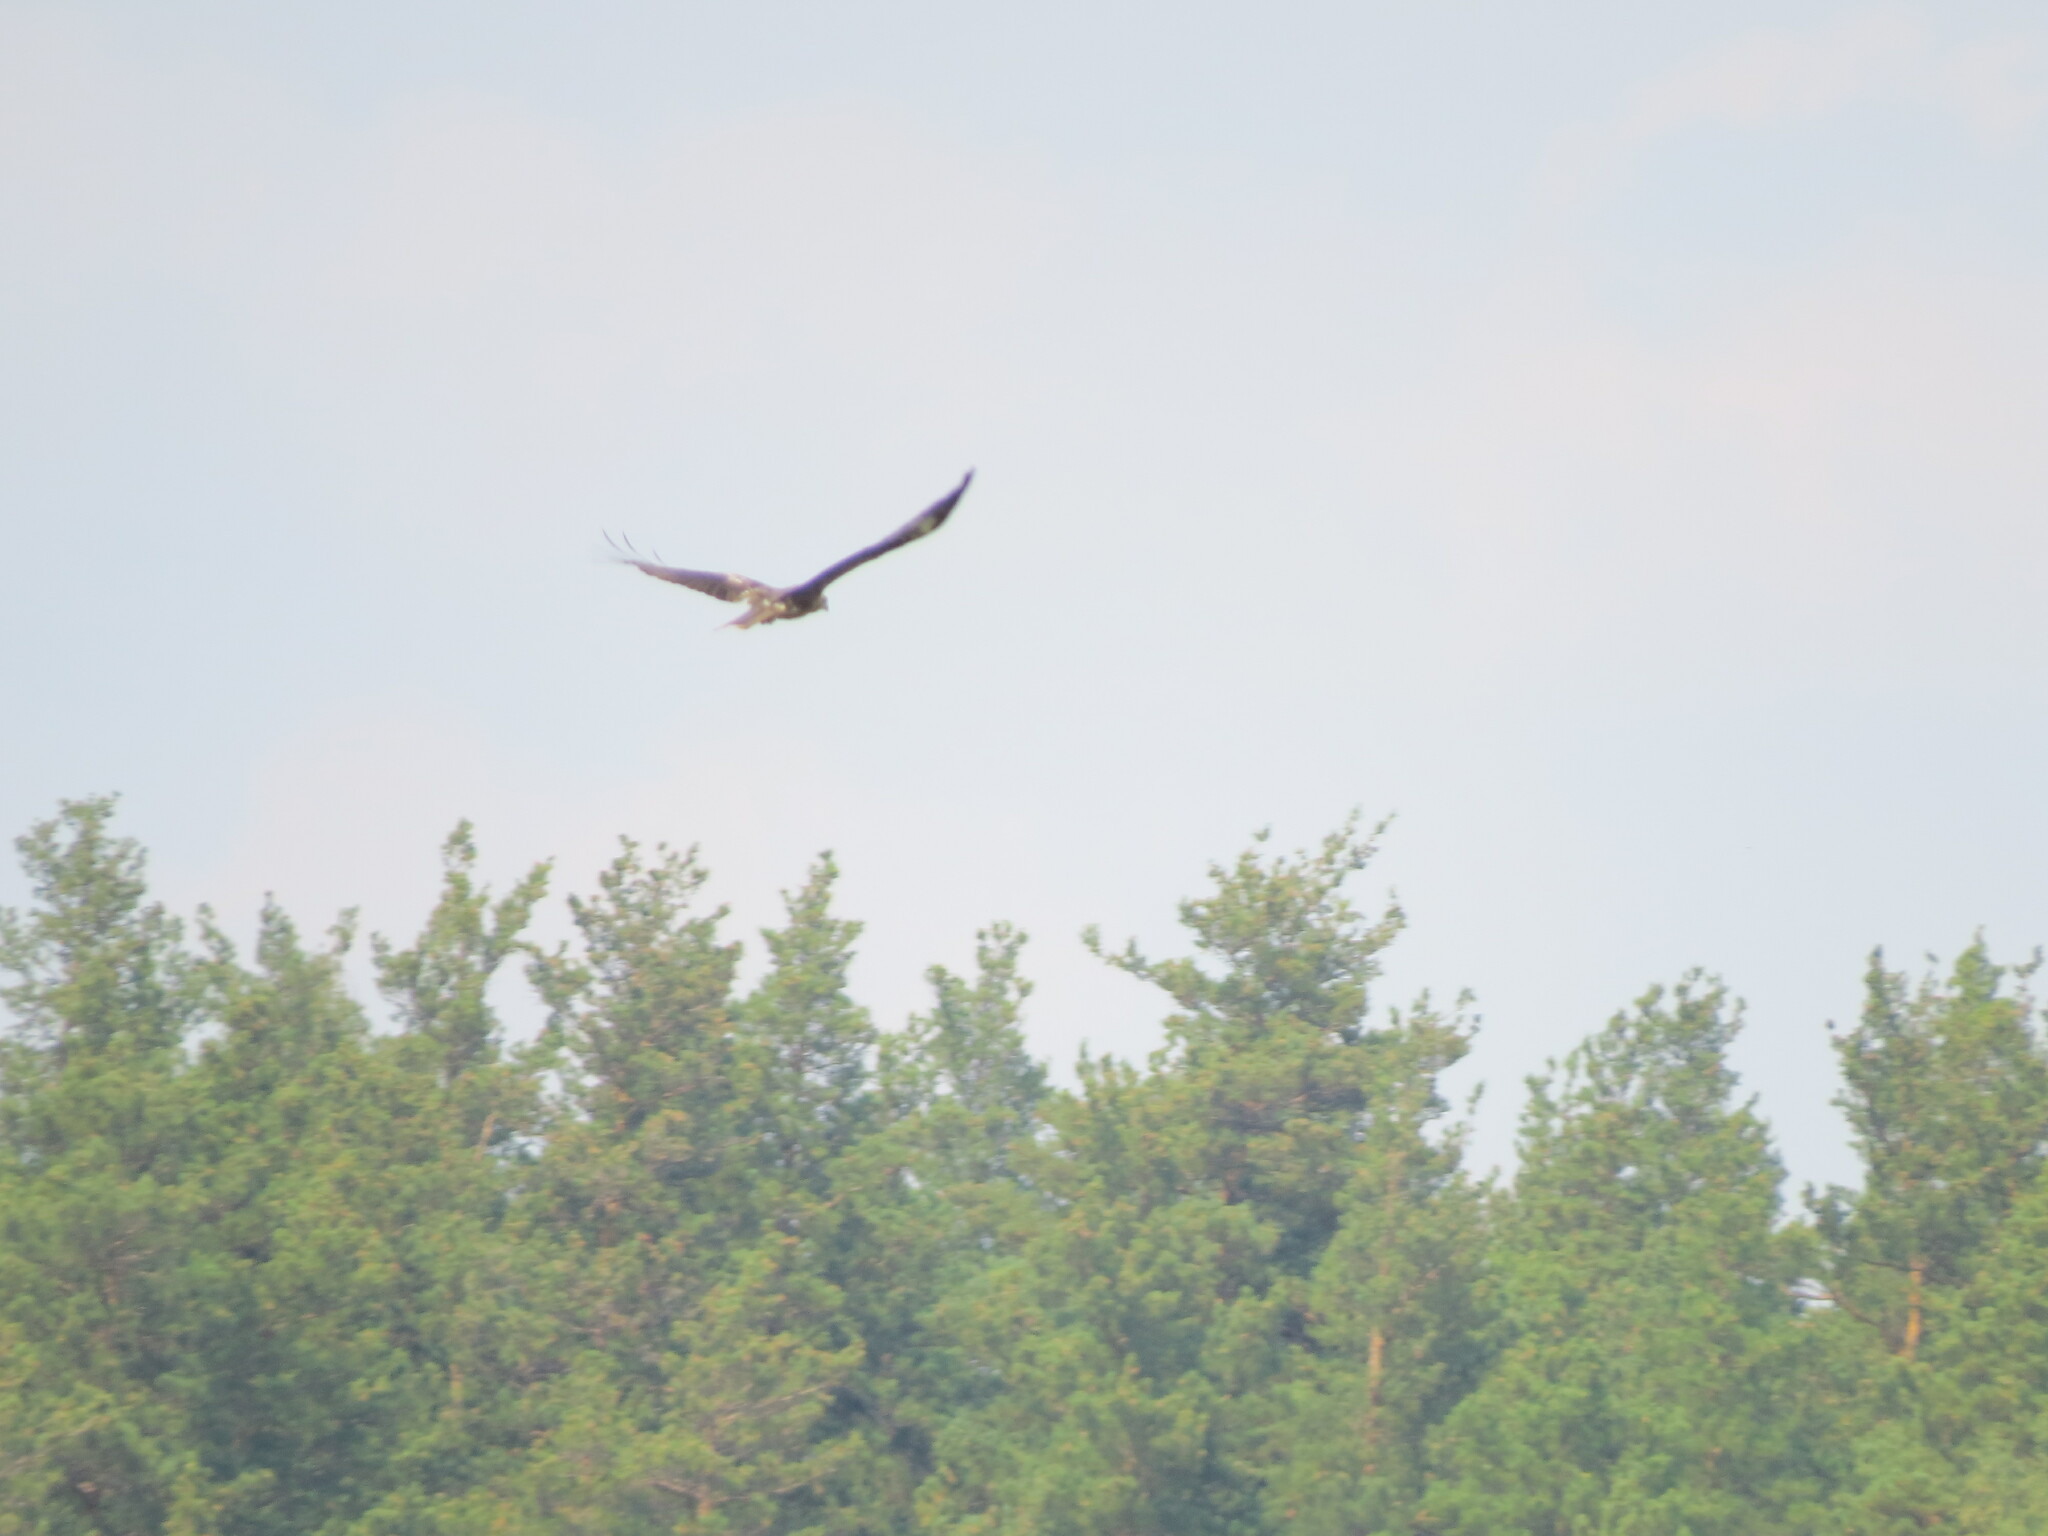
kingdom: Animalia
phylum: Chordata
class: Aves
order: Accipitriformes
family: Accipitridae
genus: Milvus
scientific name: Milvus migrans
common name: Black kite
